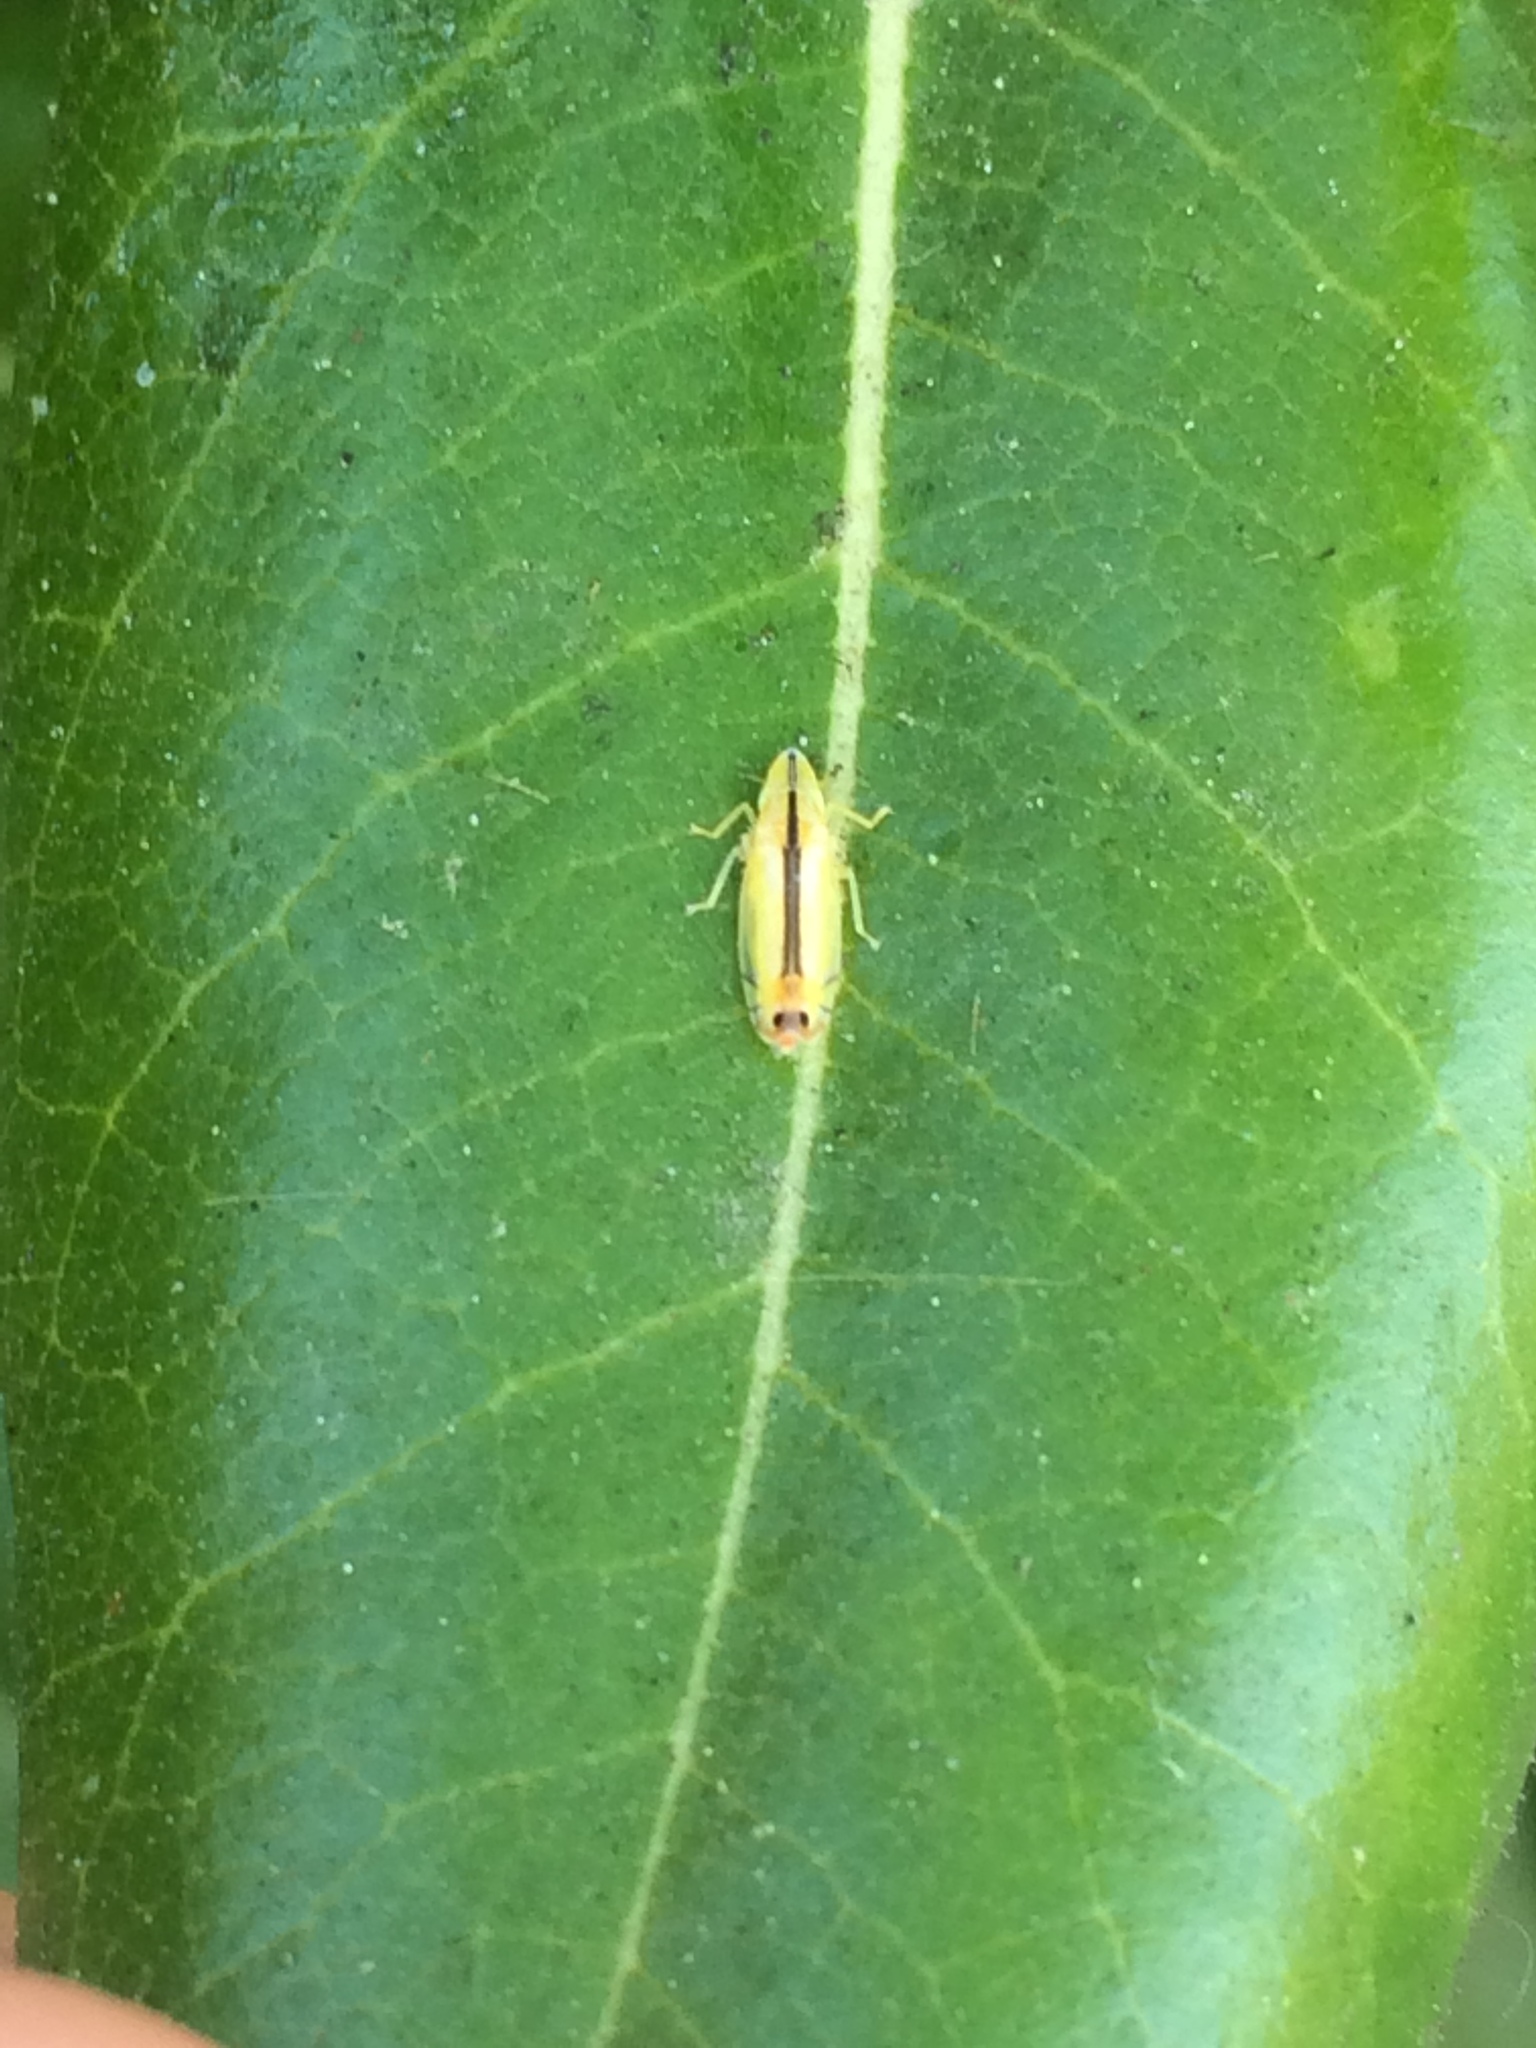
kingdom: Animalia
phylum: Arthropoda
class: Insecta
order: Hemiptera
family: Cicadellidae
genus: Sophonia
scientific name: Sophonia orientalis
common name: Two-spotted leafhopper
